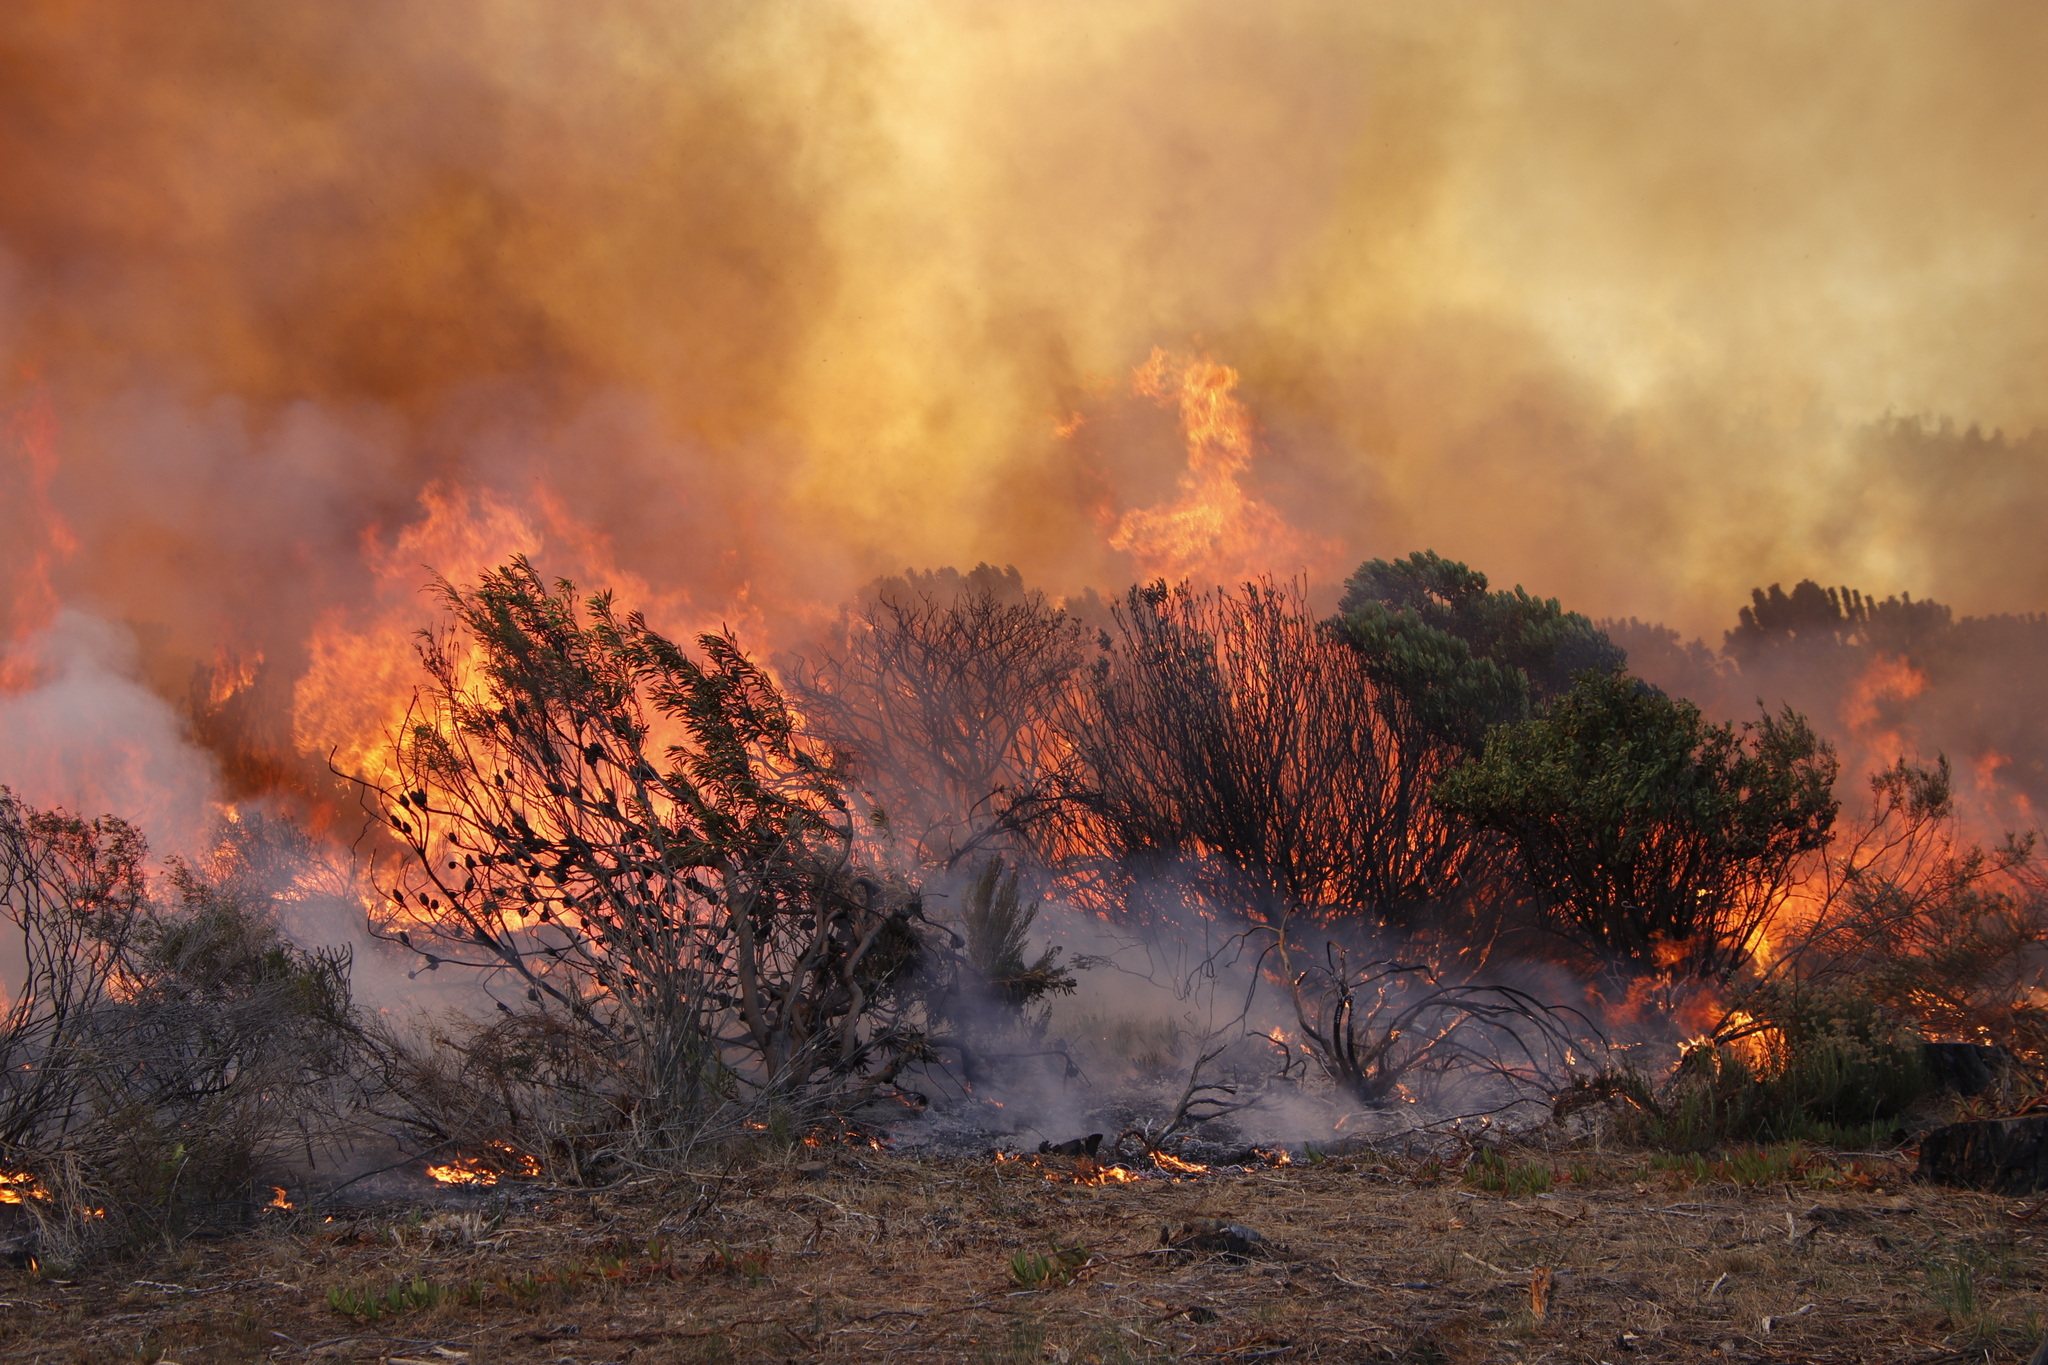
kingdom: Plantae
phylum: Tracheophyta
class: Magnoliopsida
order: Proteales
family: Proteaceae
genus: Protea
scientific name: Protea repens
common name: Sugarbush
